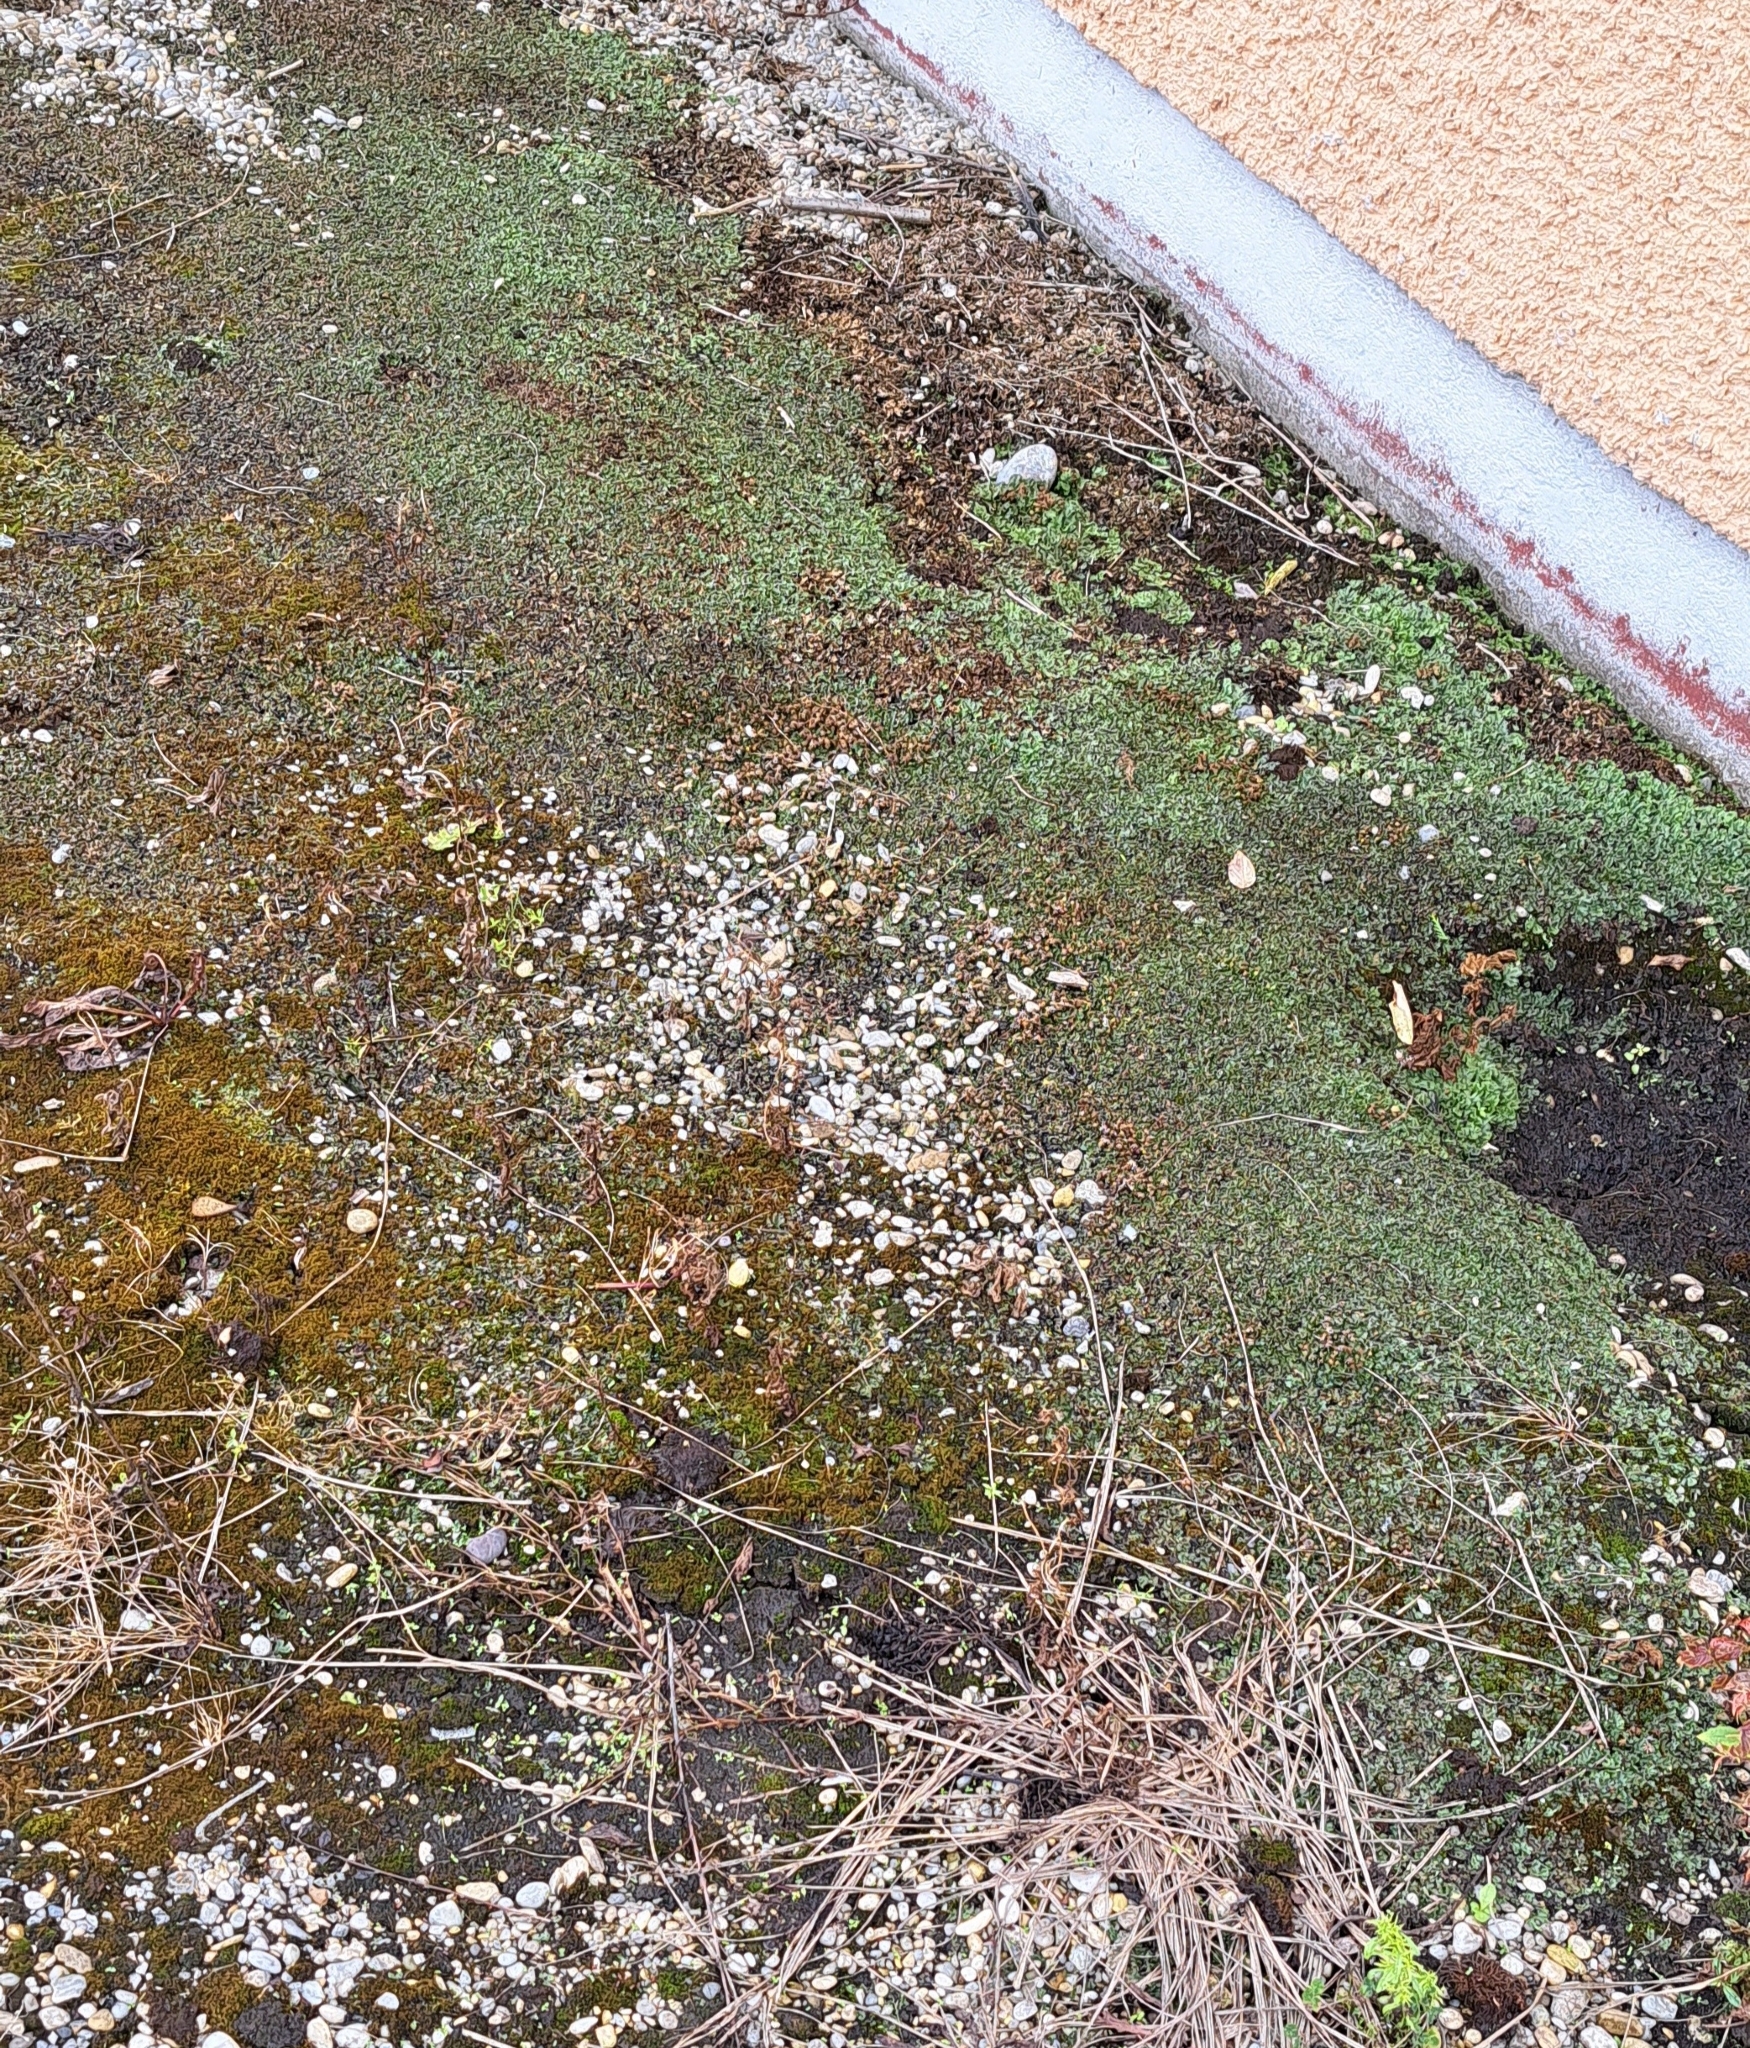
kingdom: Plantae
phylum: Marchantiophyta
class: Marchantiopsida
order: Marchantiales
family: Marchantiaceae
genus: Marchantia
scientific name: Marchantia polymorpha
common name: Common liverwort
